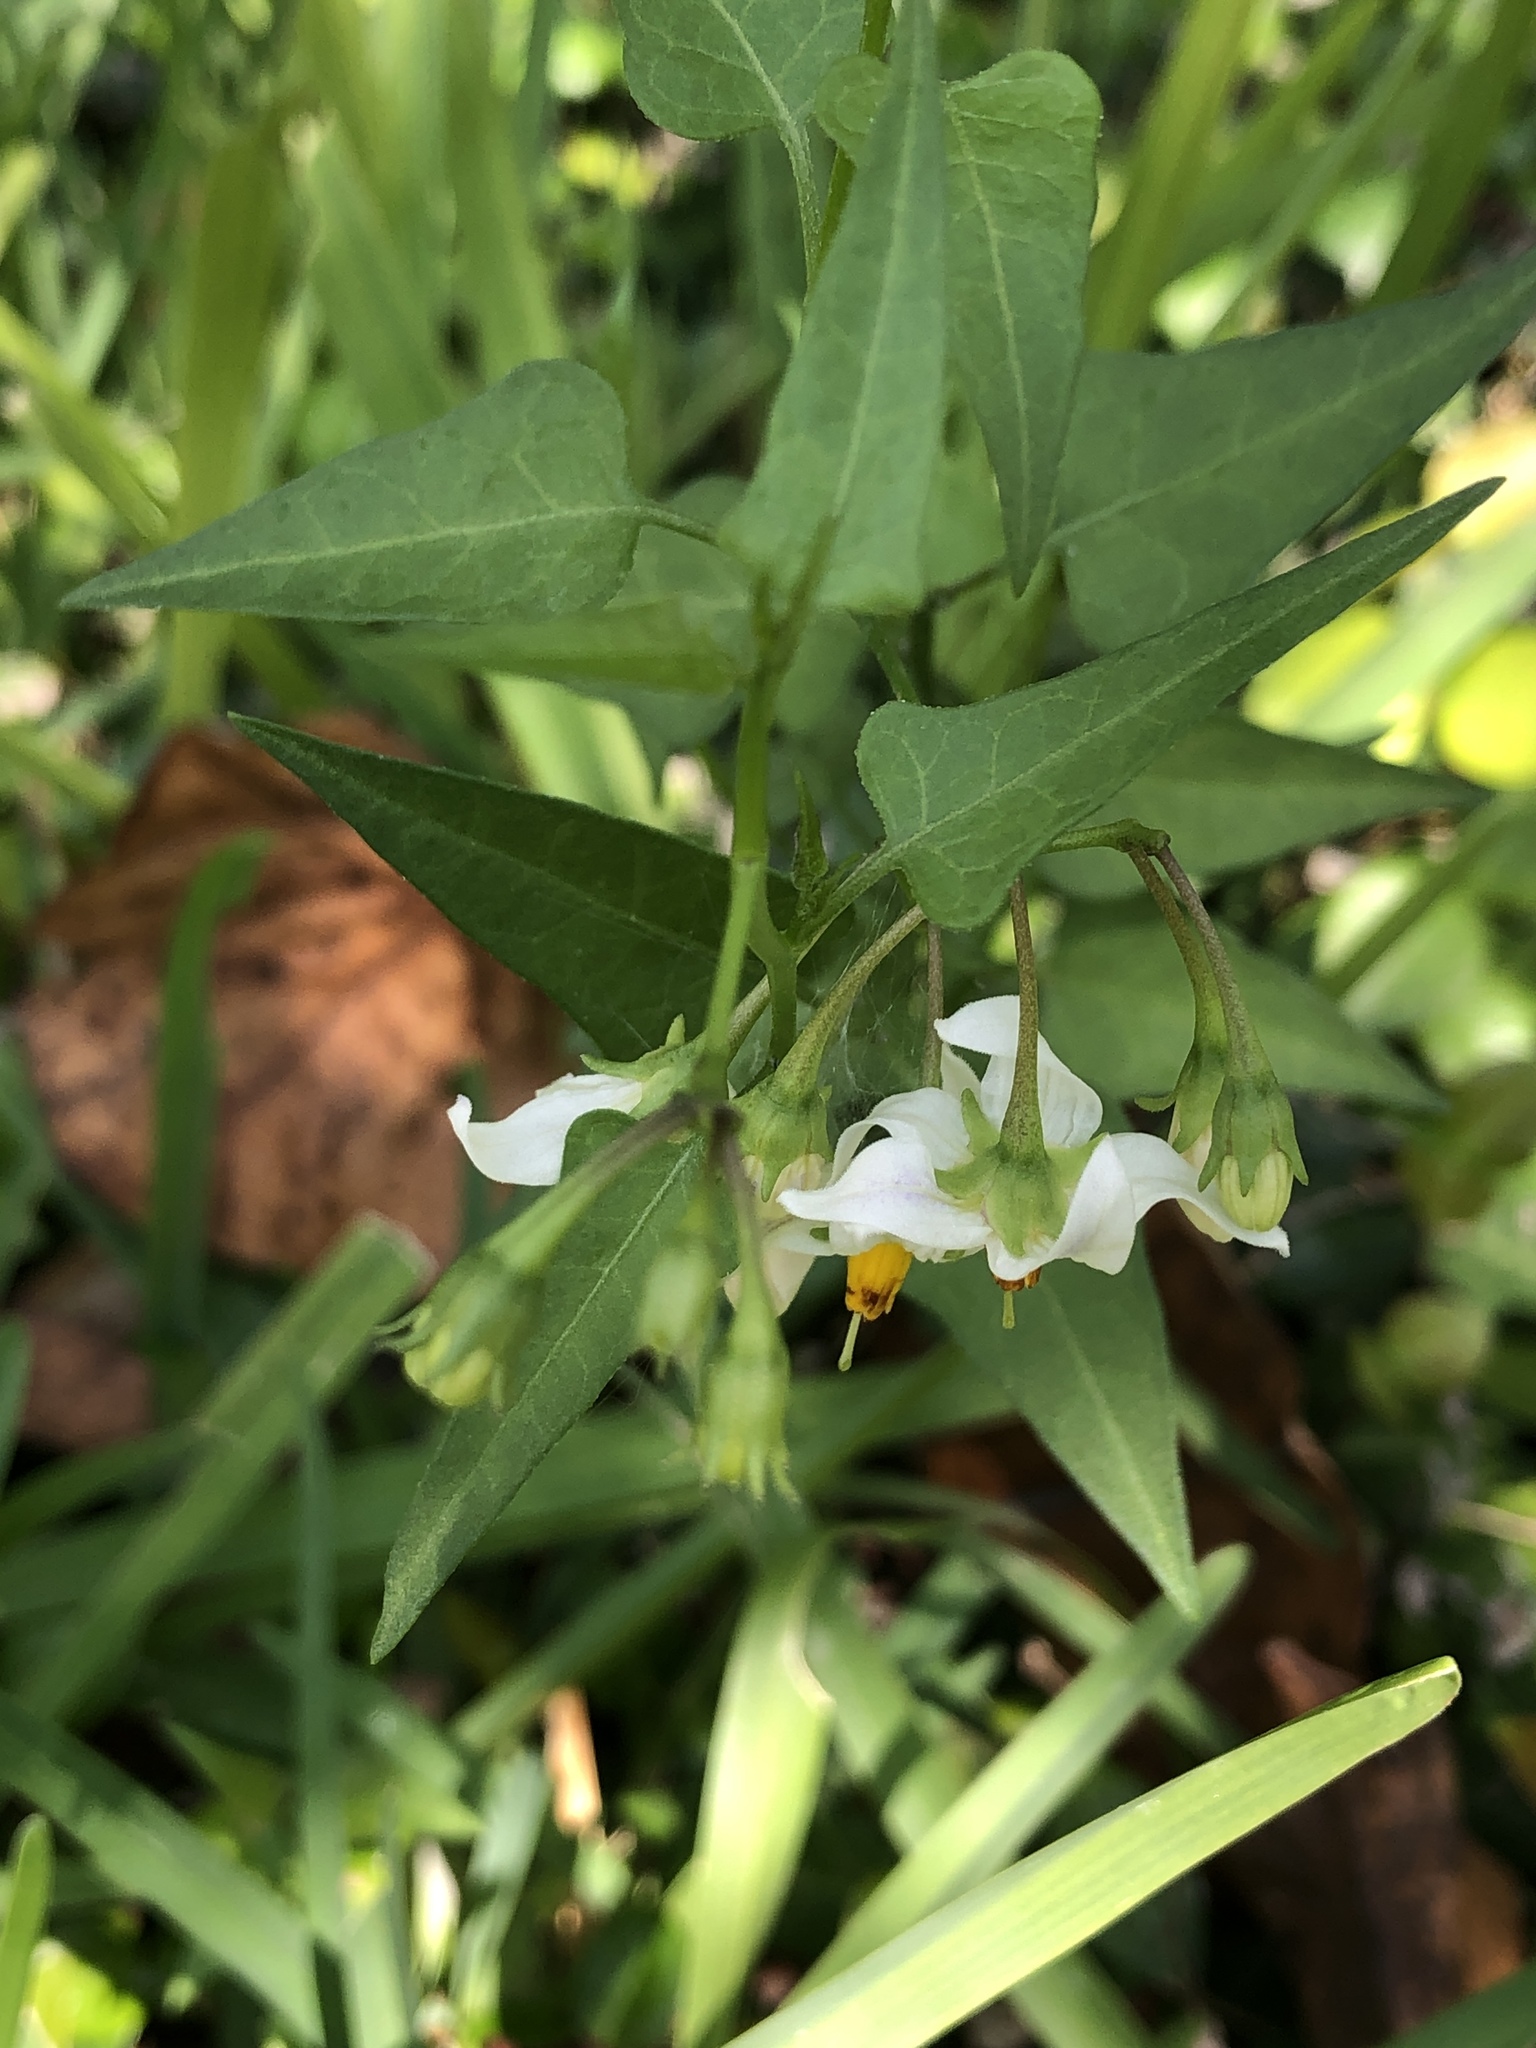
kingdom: Plantae
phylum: Tracheophyta
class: Magnoliopsida
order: Solanales
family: Solanaceae
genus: Solanum
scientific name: Solanum triquetrum
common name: Texas nightshade
